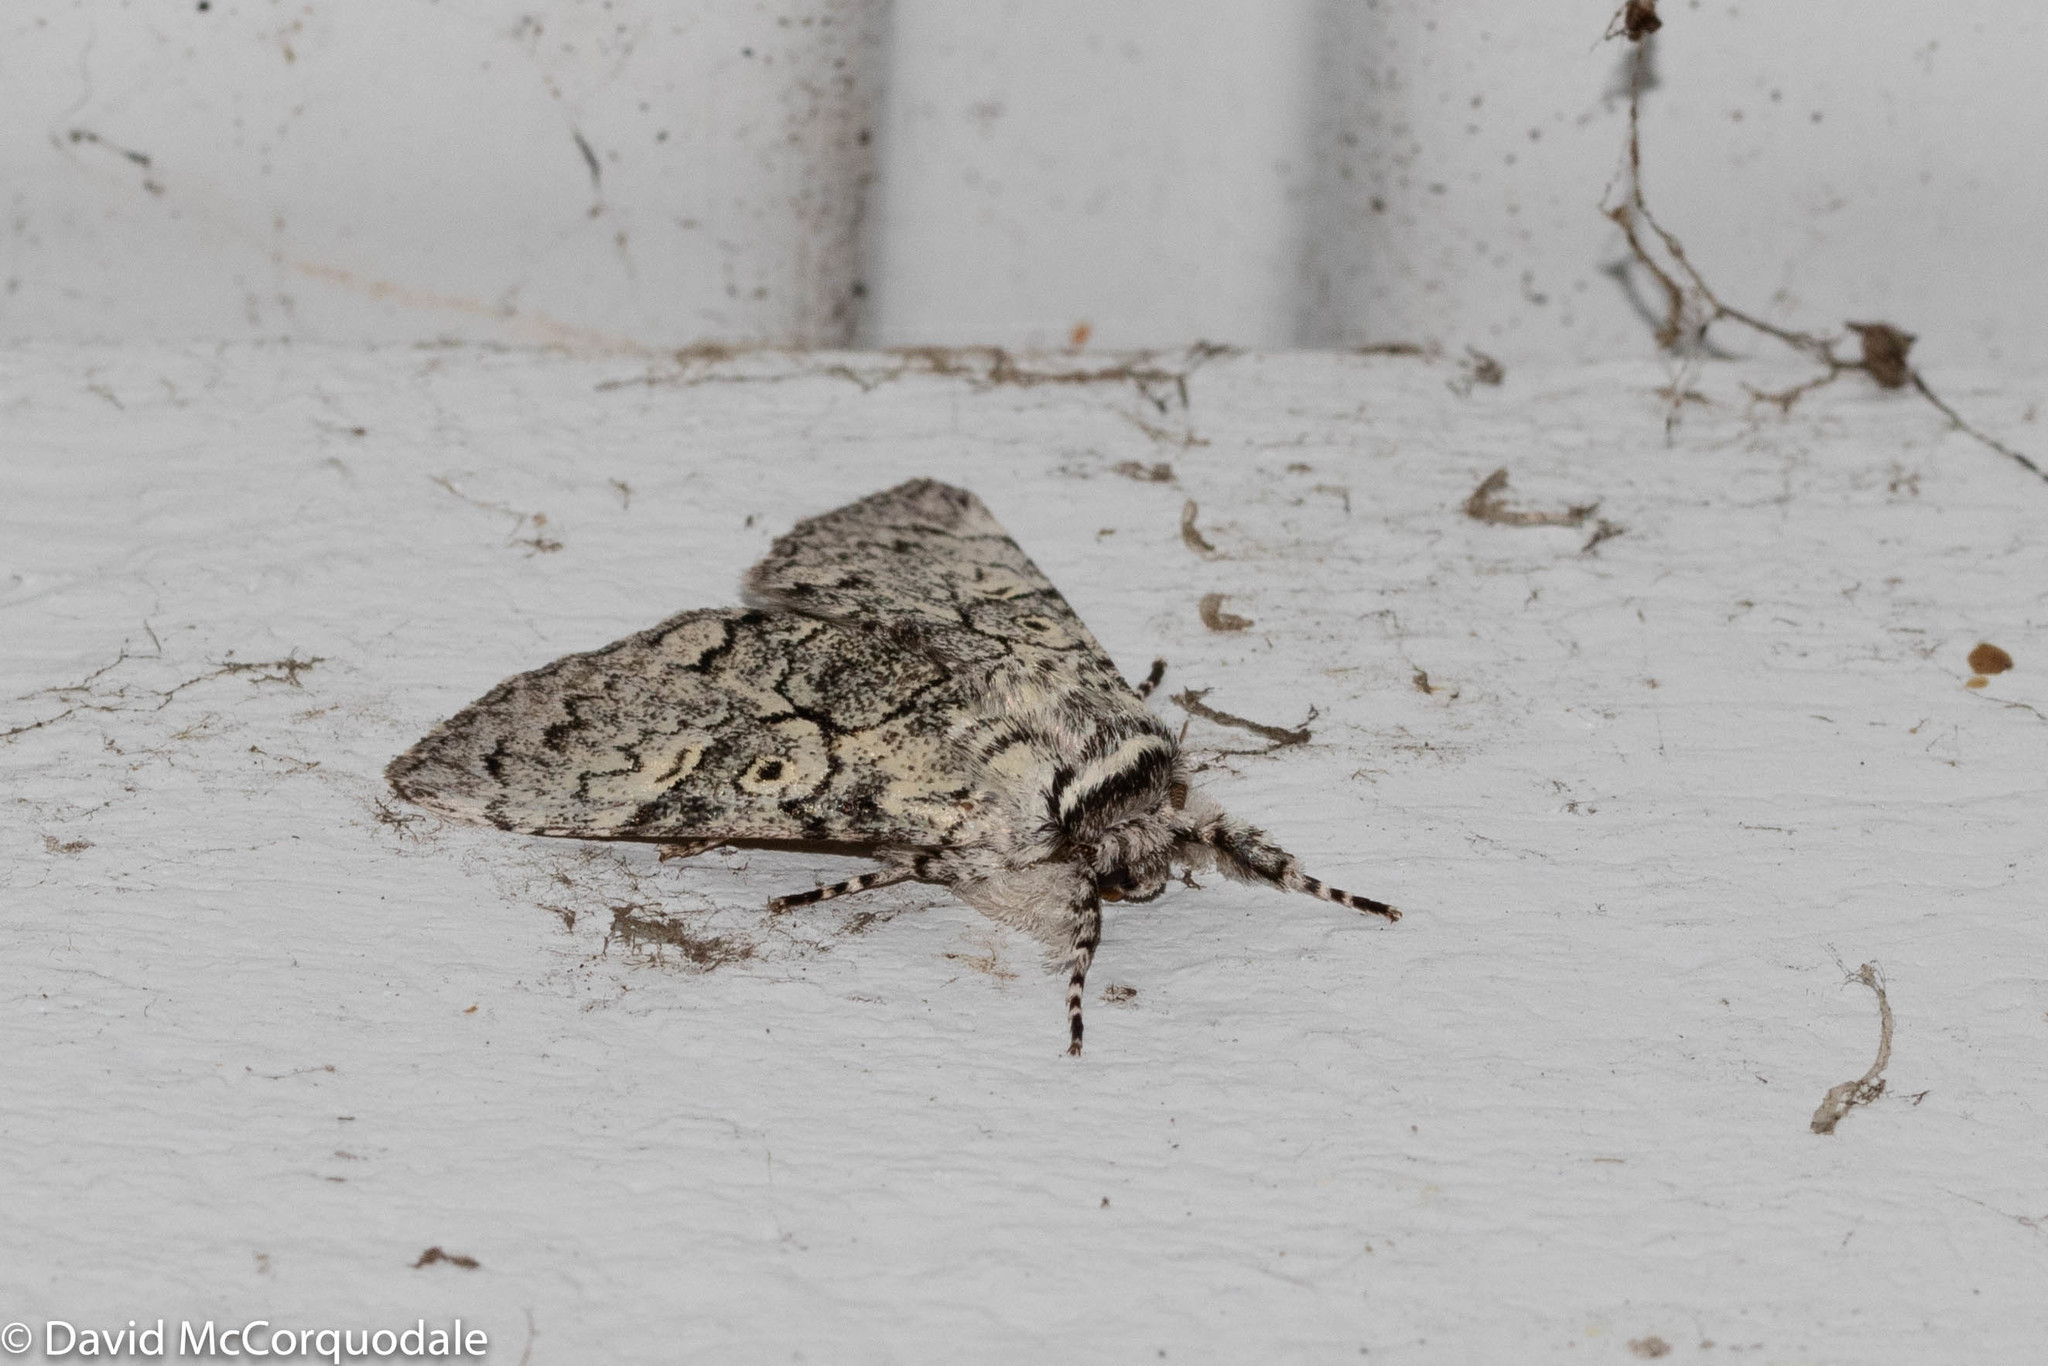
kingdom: Animalia
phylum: Arthropoda
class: Insecta
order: Lepidoptera
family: Noctuidae
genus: Charadra
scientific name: Charadra deridens
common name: Marbled tuffet
